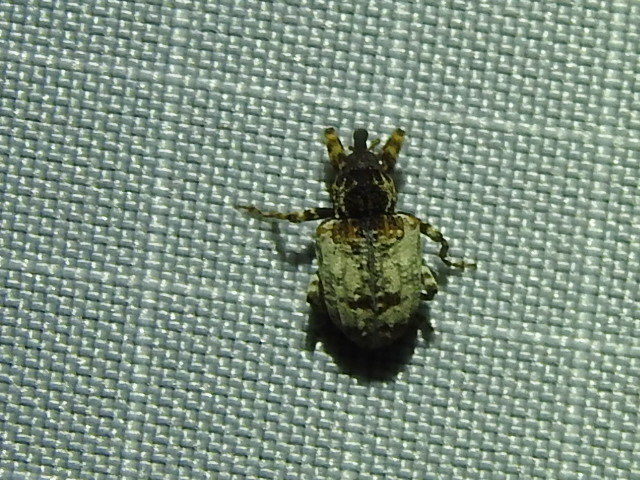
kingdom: Animalia
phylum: Arthropoda
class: Insecta
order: Coleoptera
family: Curculionidae
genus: Conotrachelus
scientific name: Conotrachelus leucophaeatus
